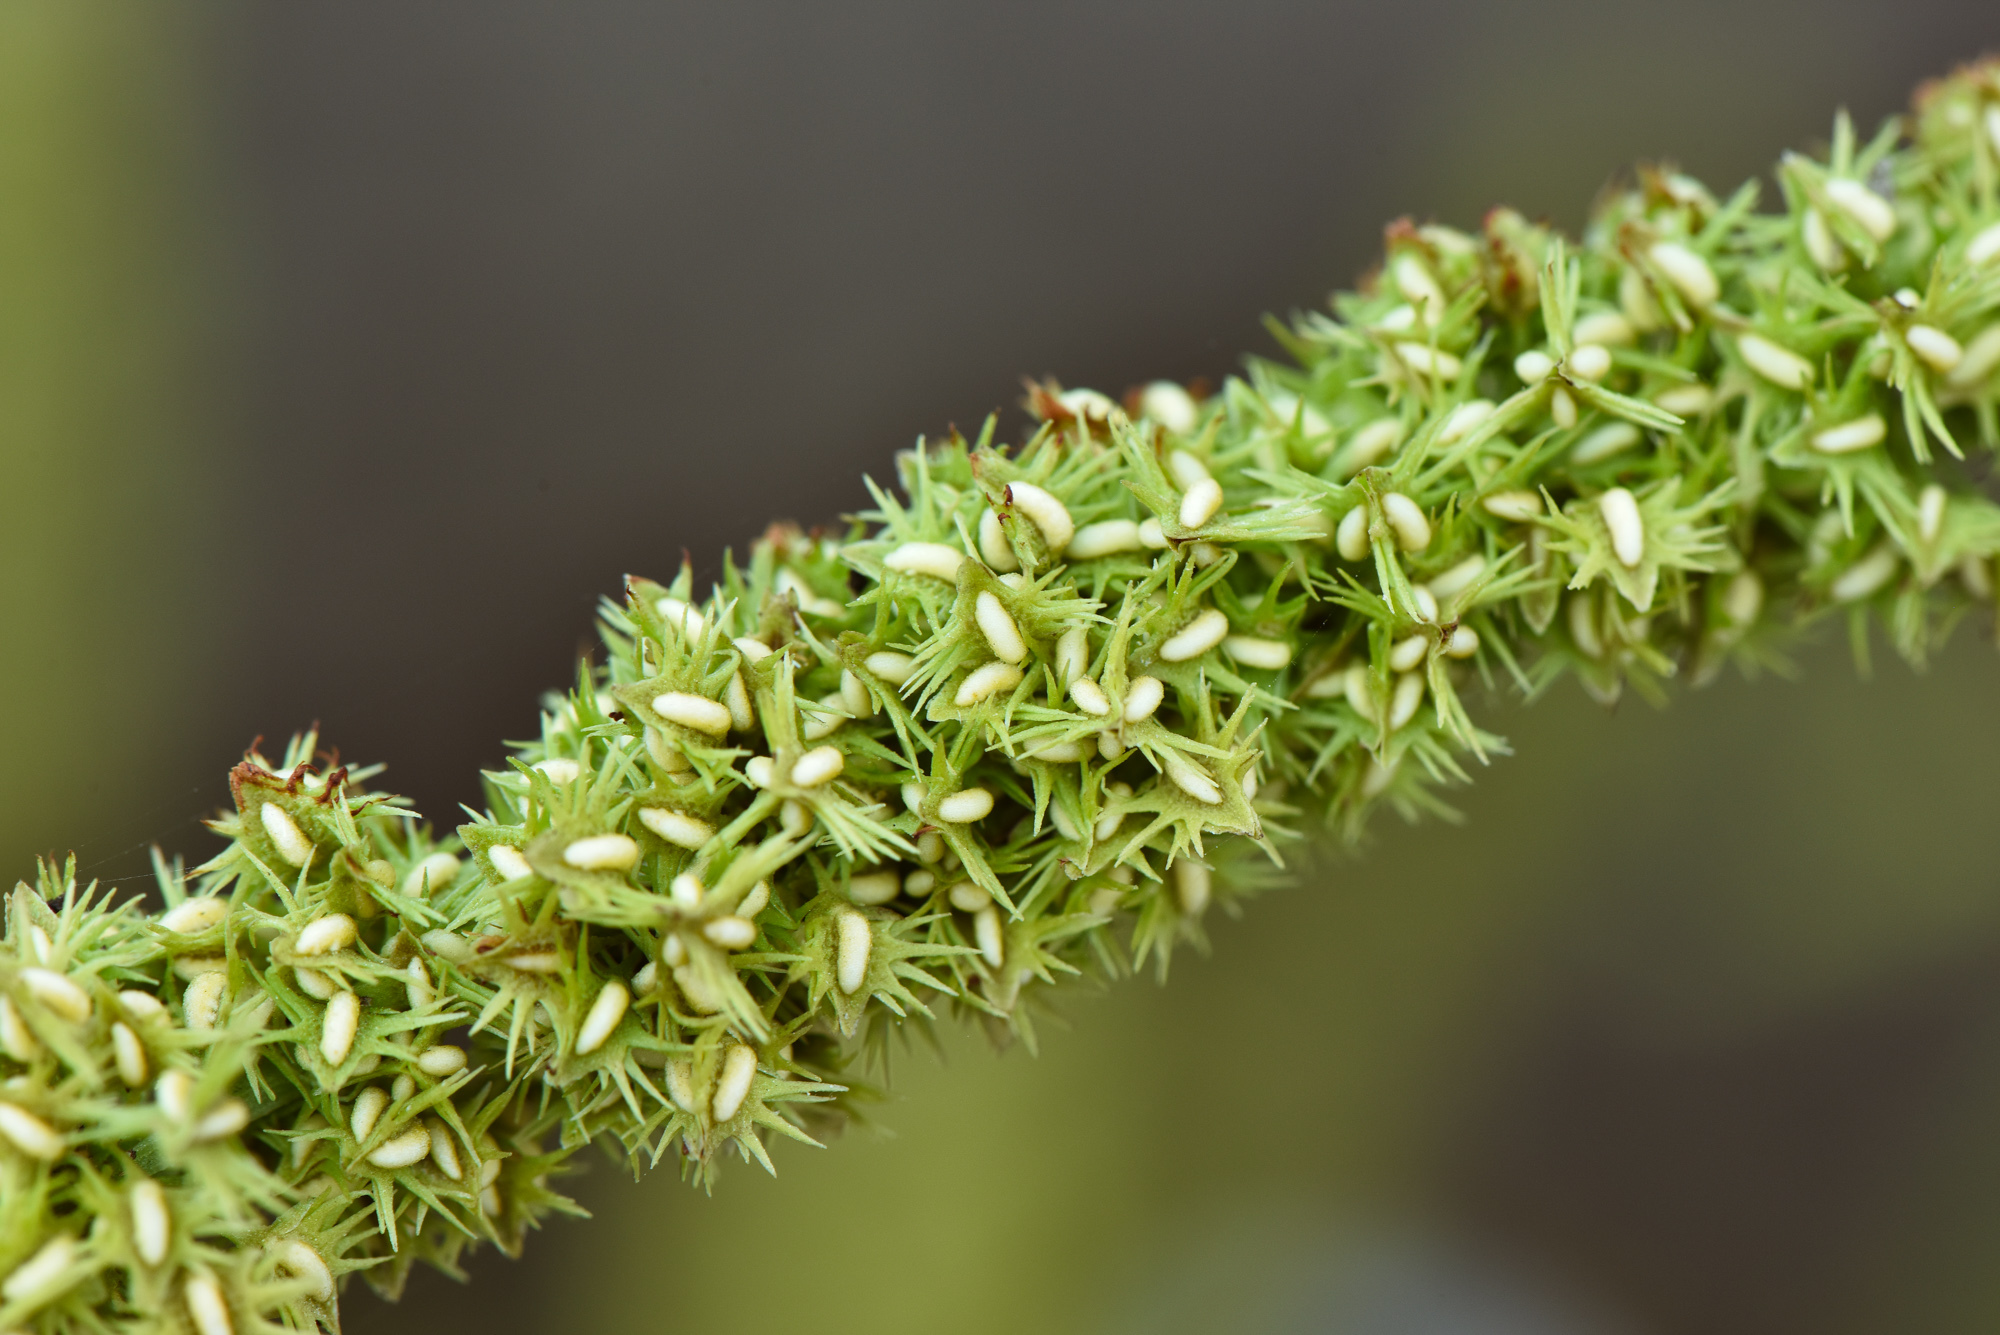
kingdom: Plantae
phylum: Tracheophyta
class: Magnoliopsida
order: Caryophyllales
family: Polygonaceae
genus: Rumex
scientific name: Rumex dentatus
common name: Toothed dock
